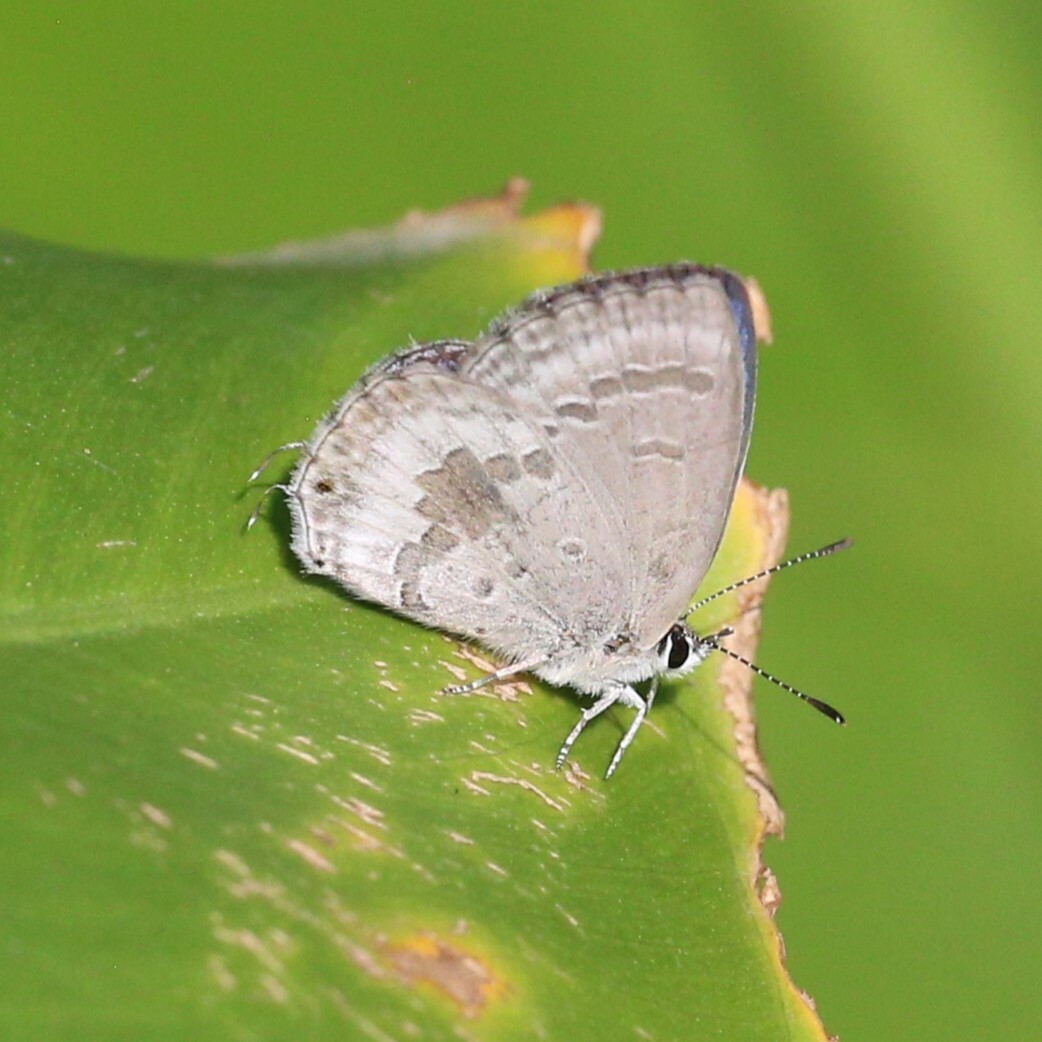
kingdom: Animalia
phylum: Arthropoda
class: Insecta
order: Lepidoptera
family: Lycaenidae
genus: Luthrodes
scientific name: Luthrodes pandava
